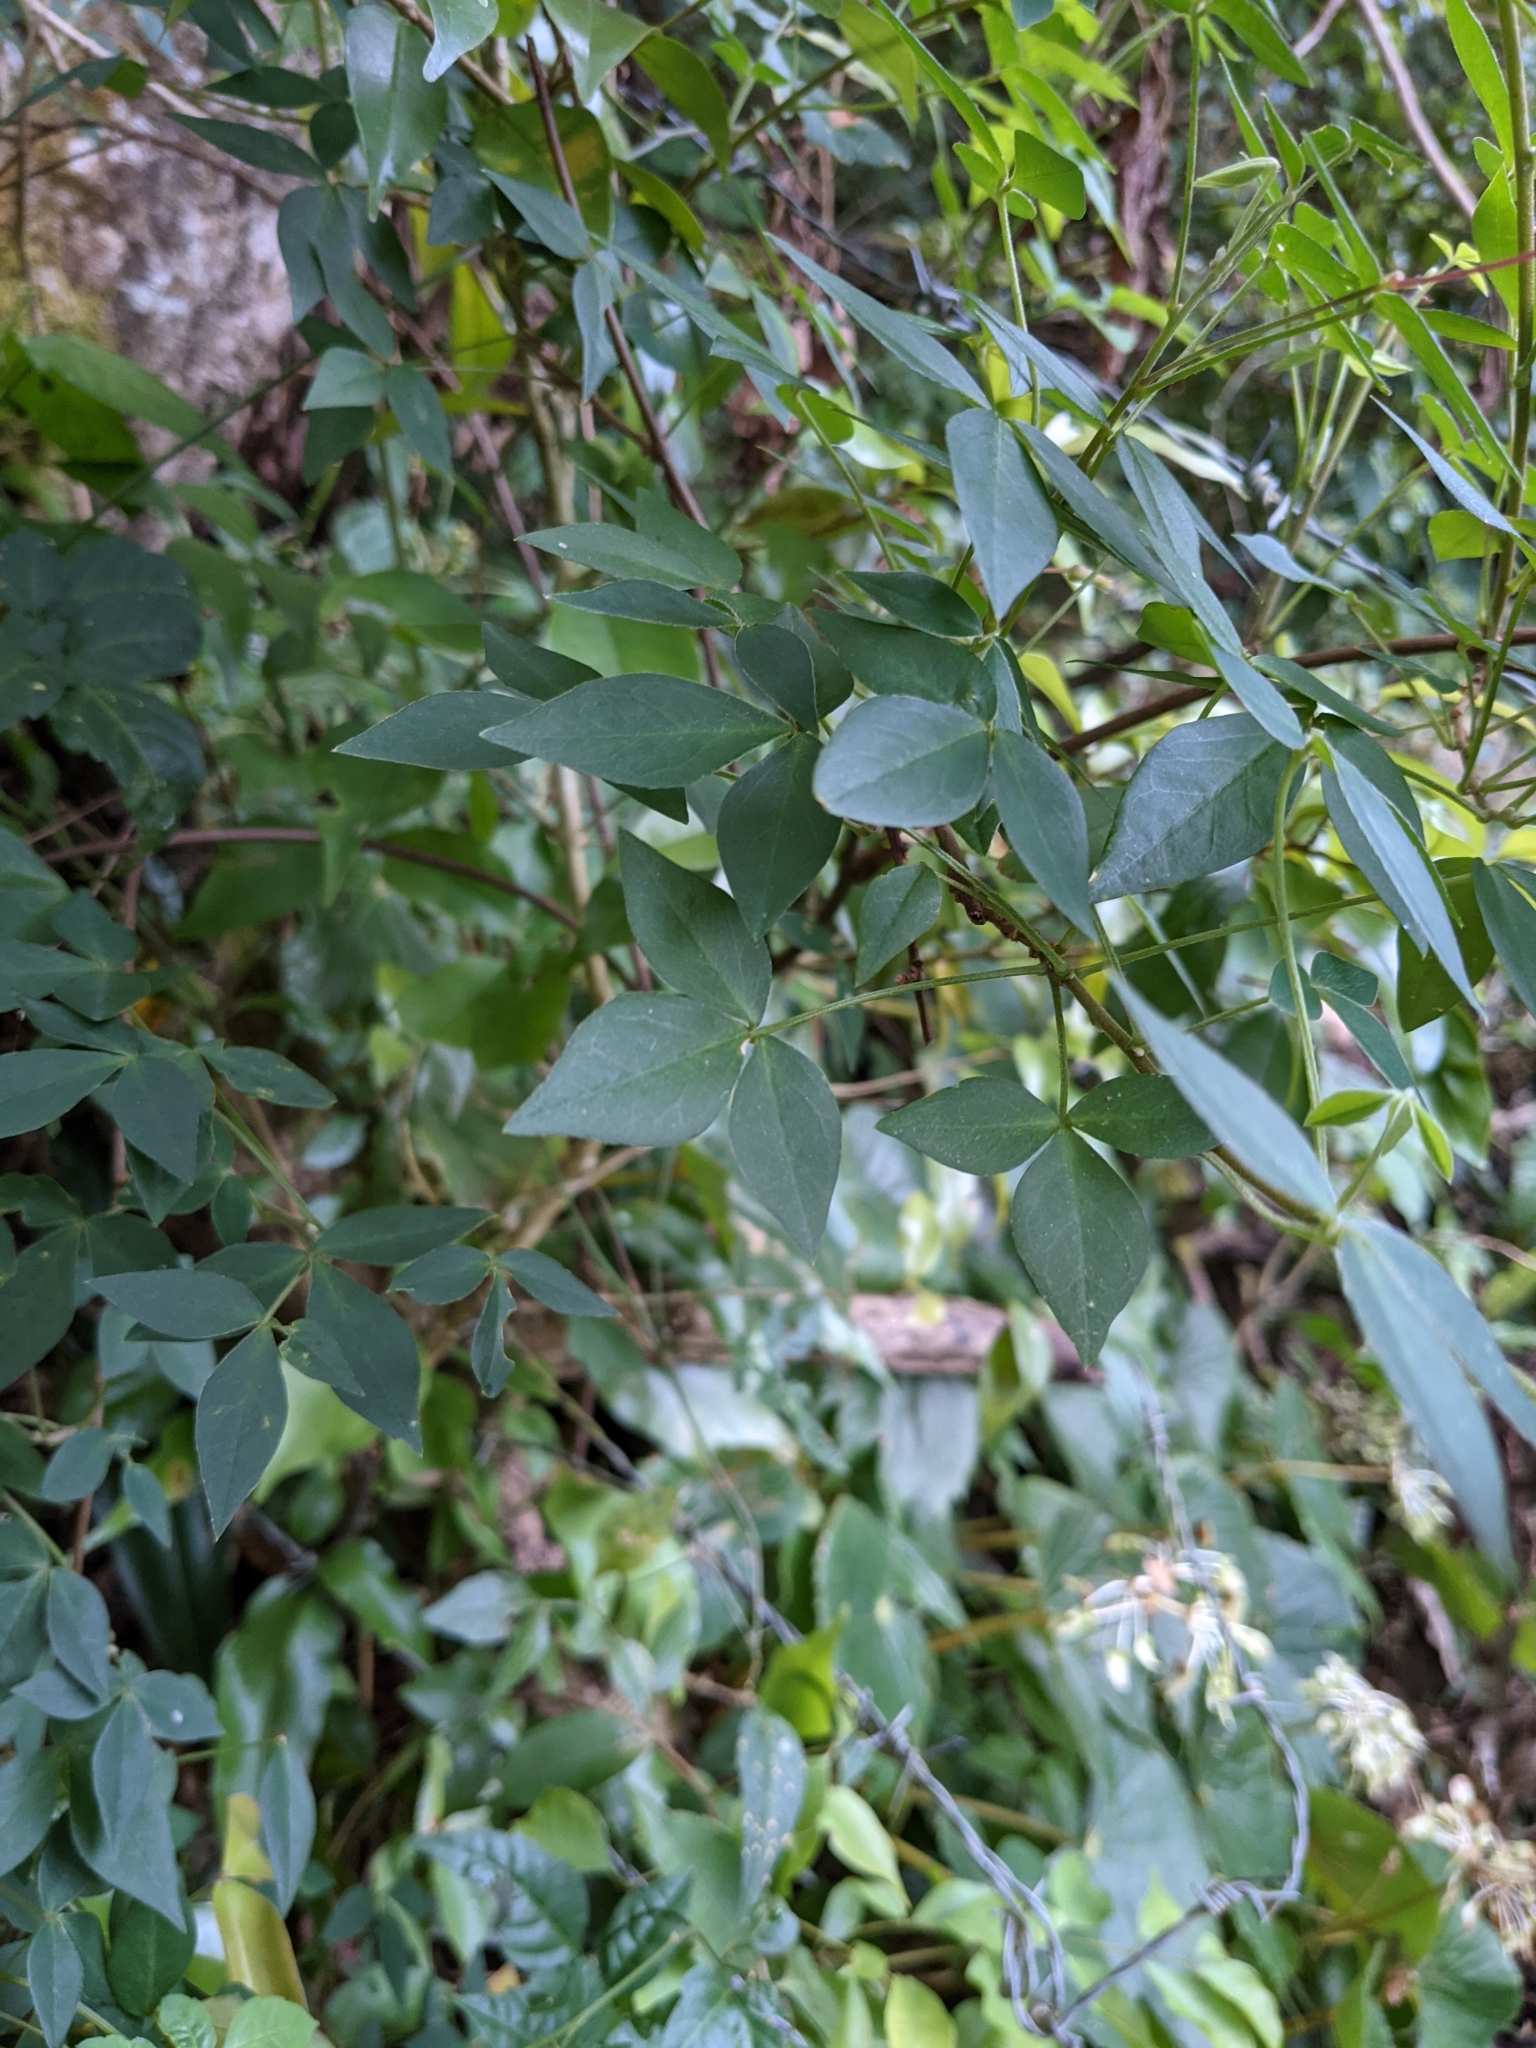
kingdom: Plantae
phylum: Tracheophyta
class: Magnoliopsida
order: Oxalidales
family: Oxalidaceae
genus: Oxalis
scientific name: Oxalis rhombifolia
